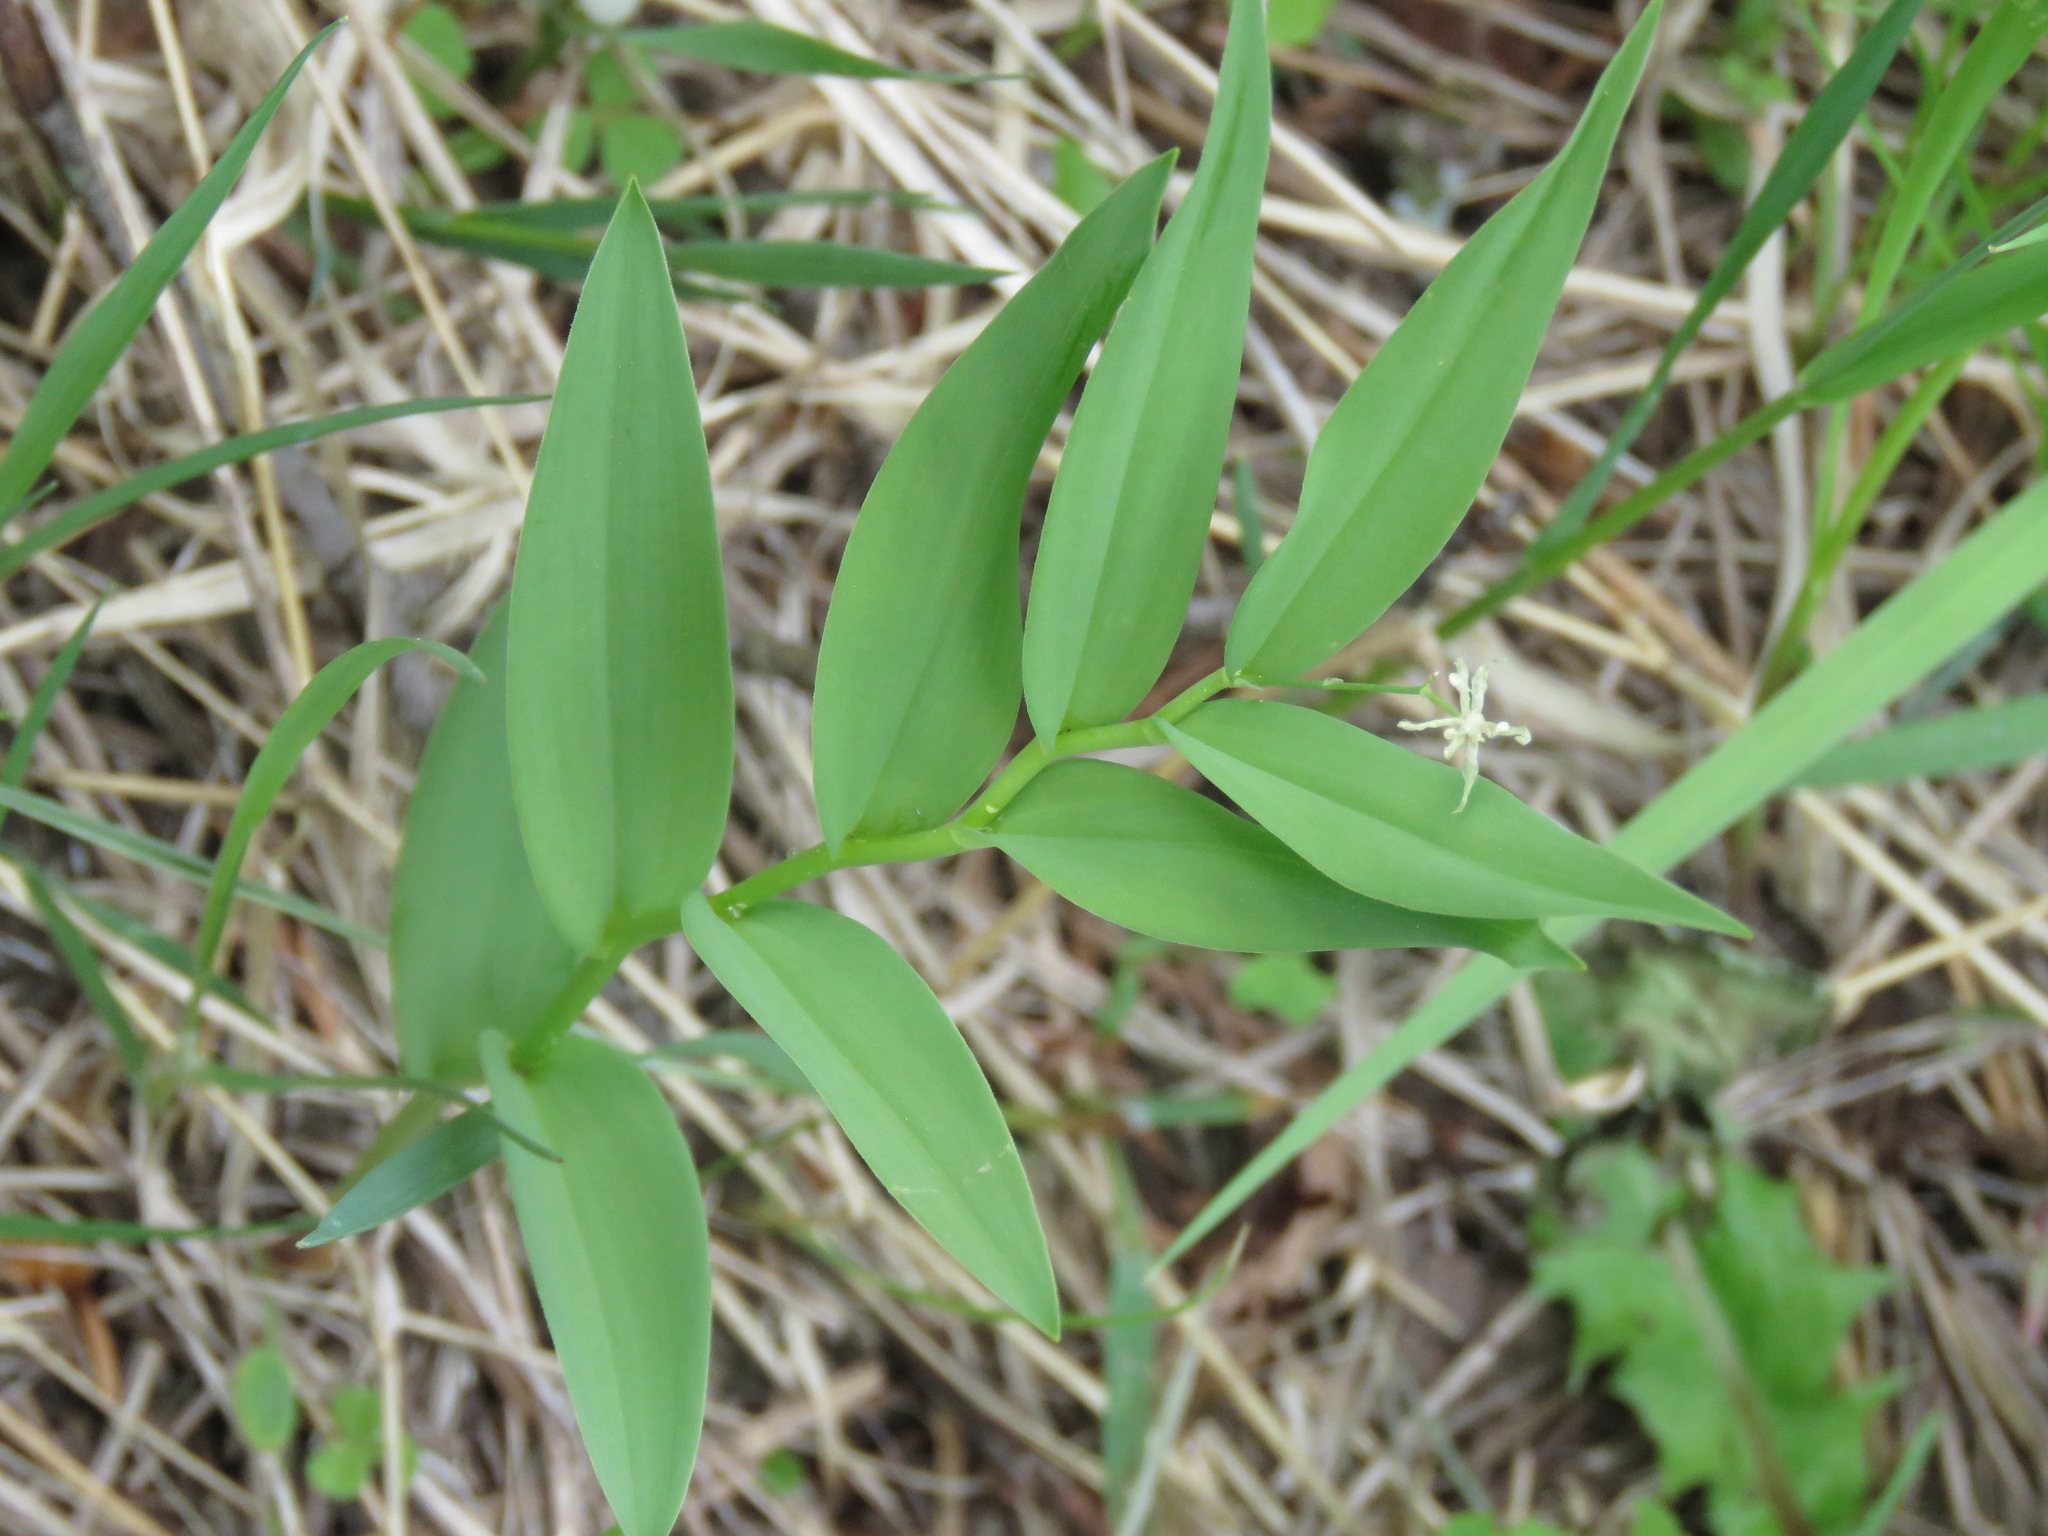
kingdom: Plantae
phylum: Tracheophyta
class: Liliopsida
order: Asparagales
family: Asparagaceae
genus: Maianthemum
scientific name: Maianthemum stellatum
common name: Little false solomon's seal
